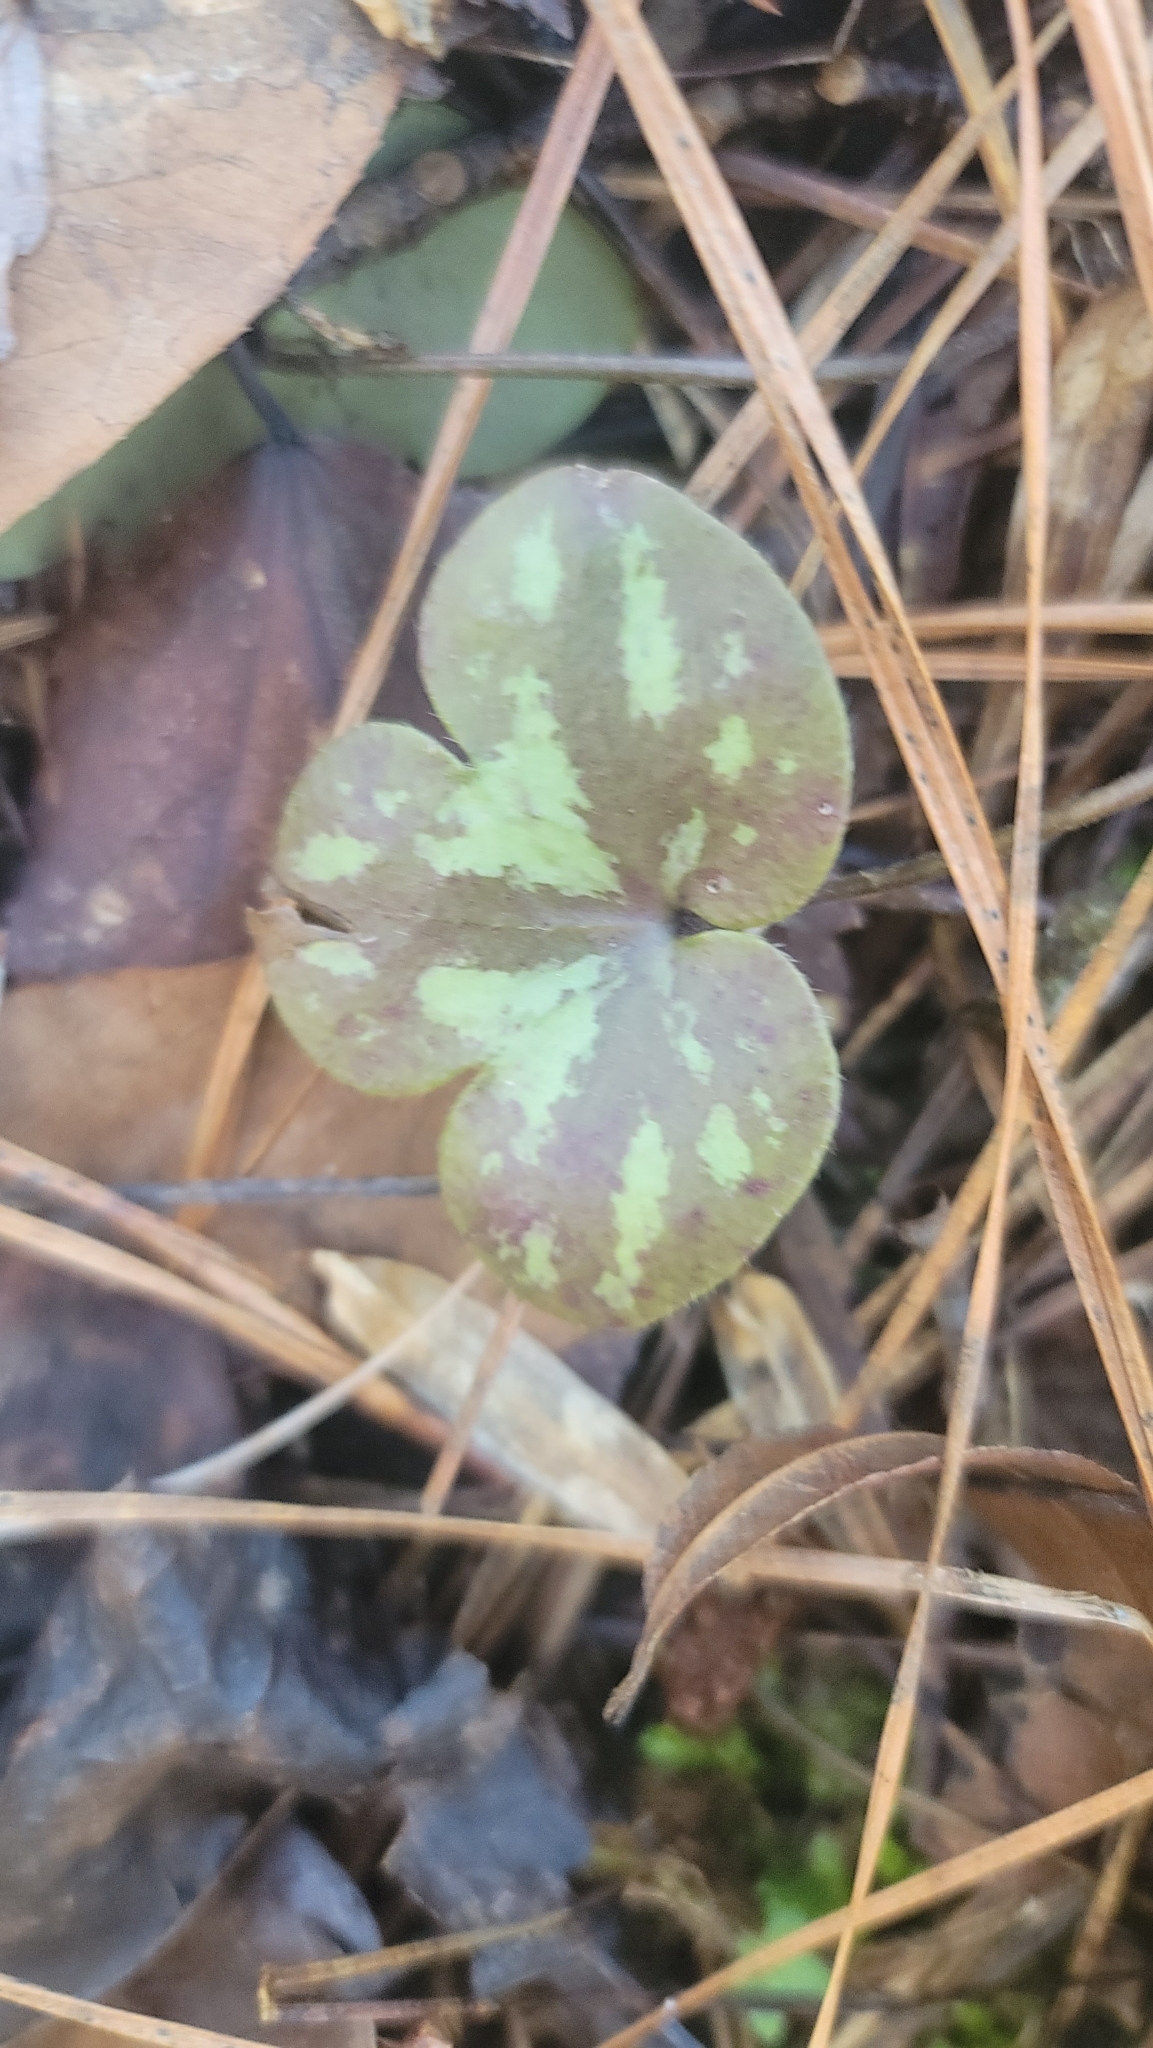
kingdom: Plantae
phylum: Tracheophyta
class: Magnoliopsida
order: Ranunculales
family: Ranunculaceae
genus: Hepatica
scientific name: Hepatica americana
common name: American hepatica
